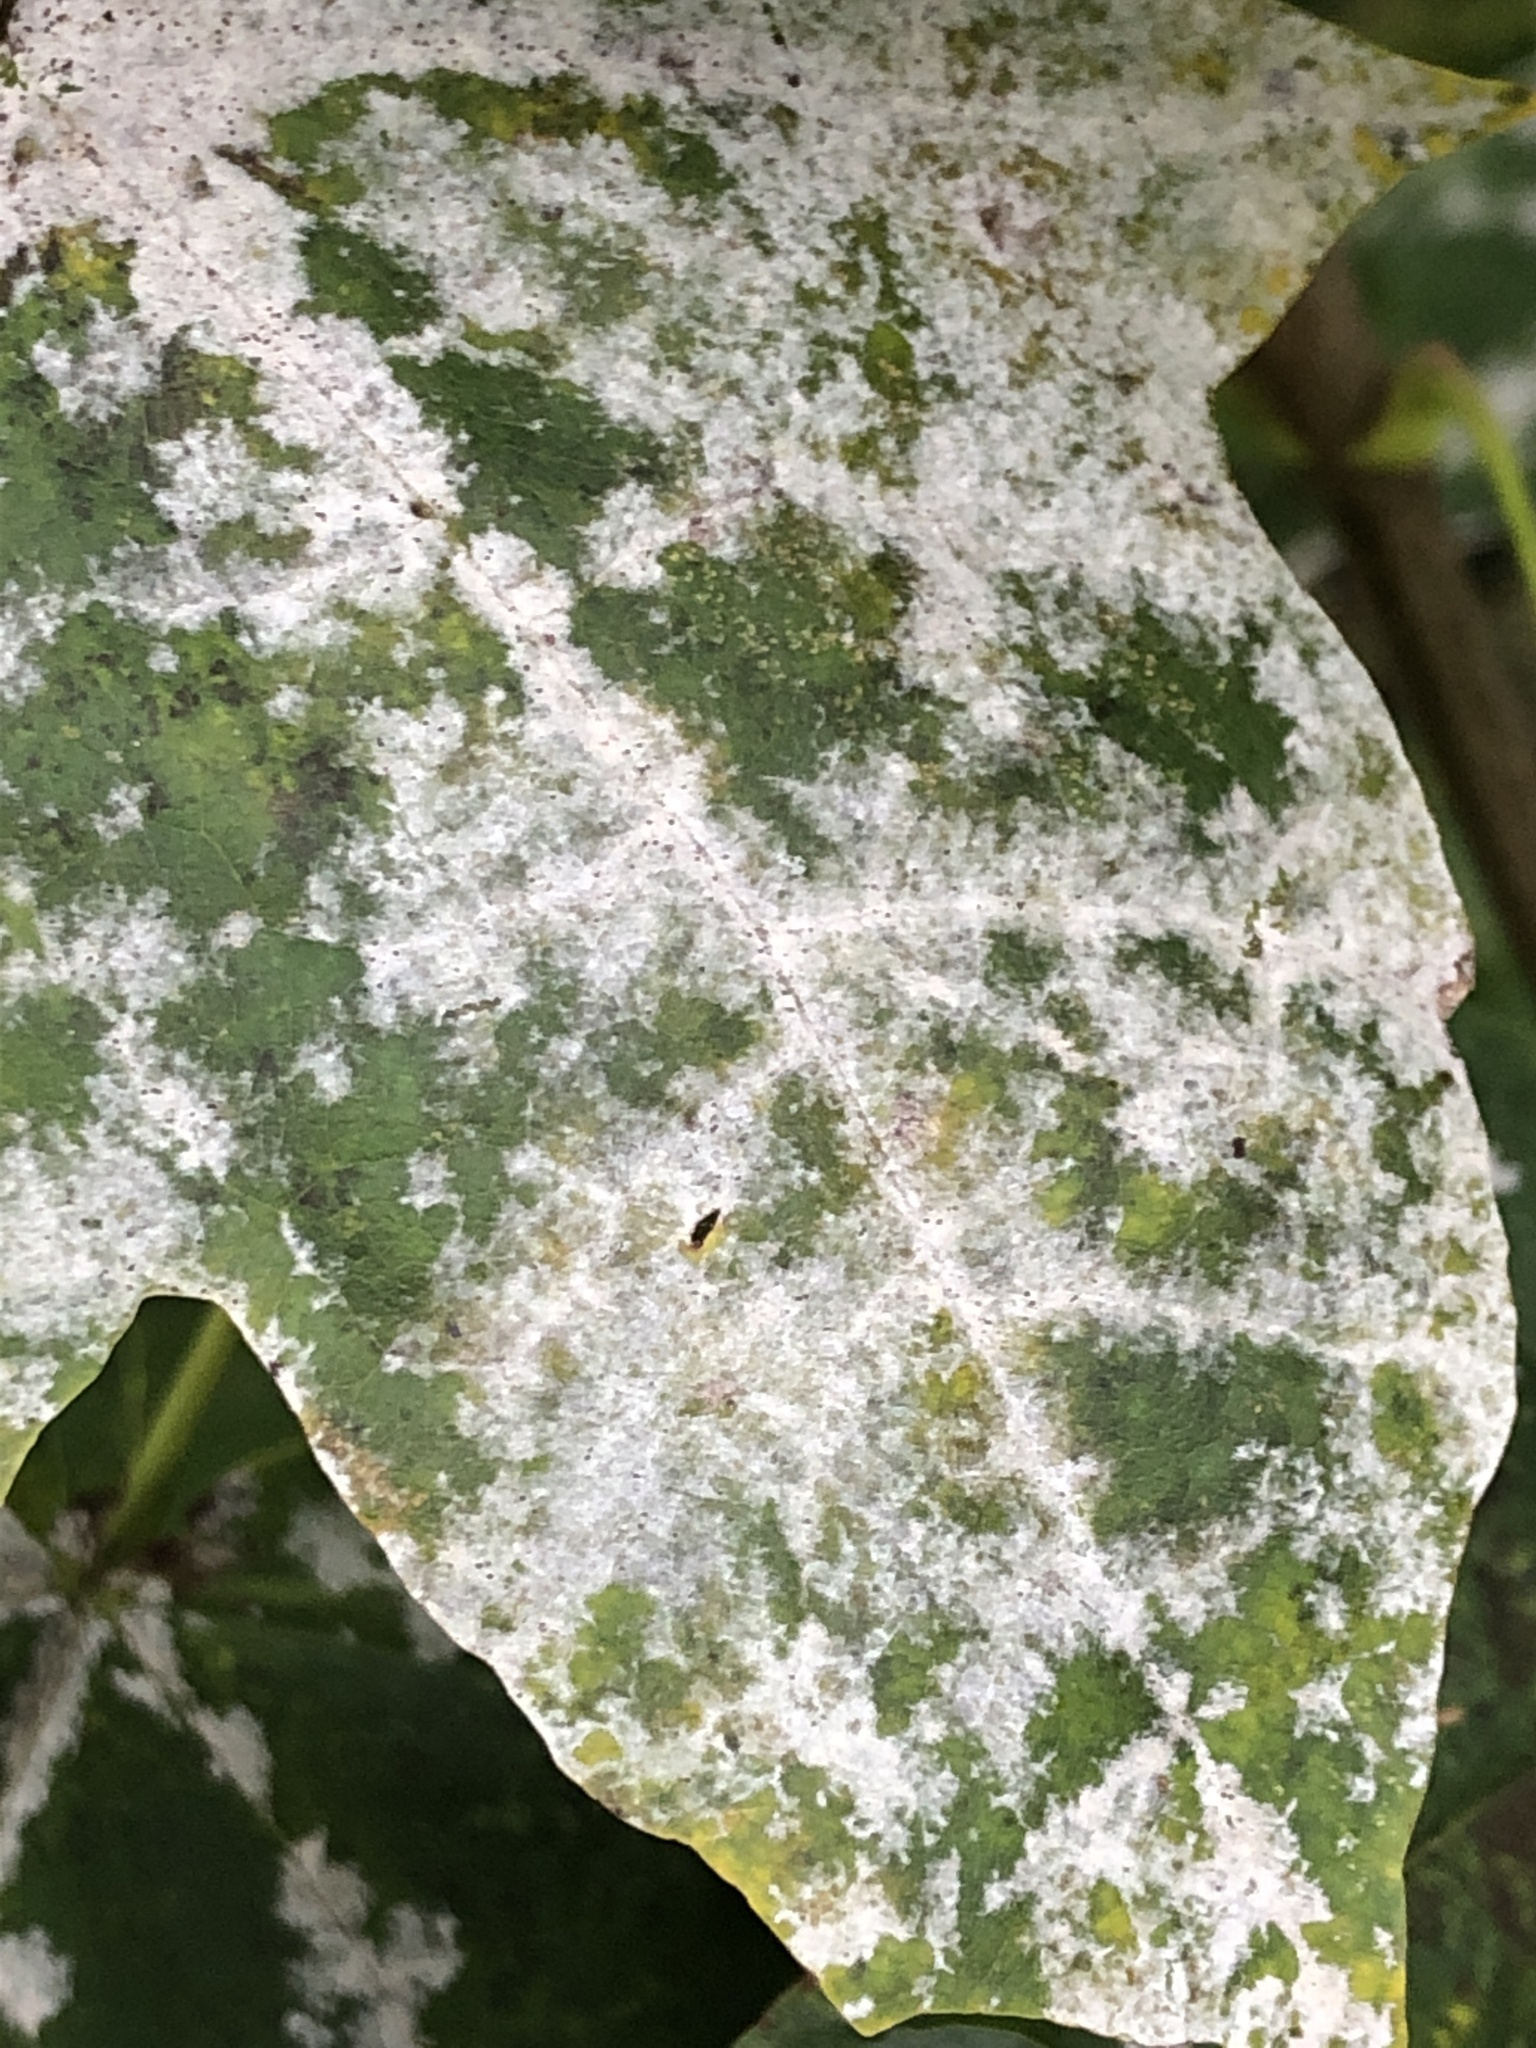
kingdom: Fungi
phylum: Ascomycota
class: Leotiomycetes
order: Helotiales
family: Erysiphaceae
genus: Sawadaea
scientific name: Sawadaea tulasnei
